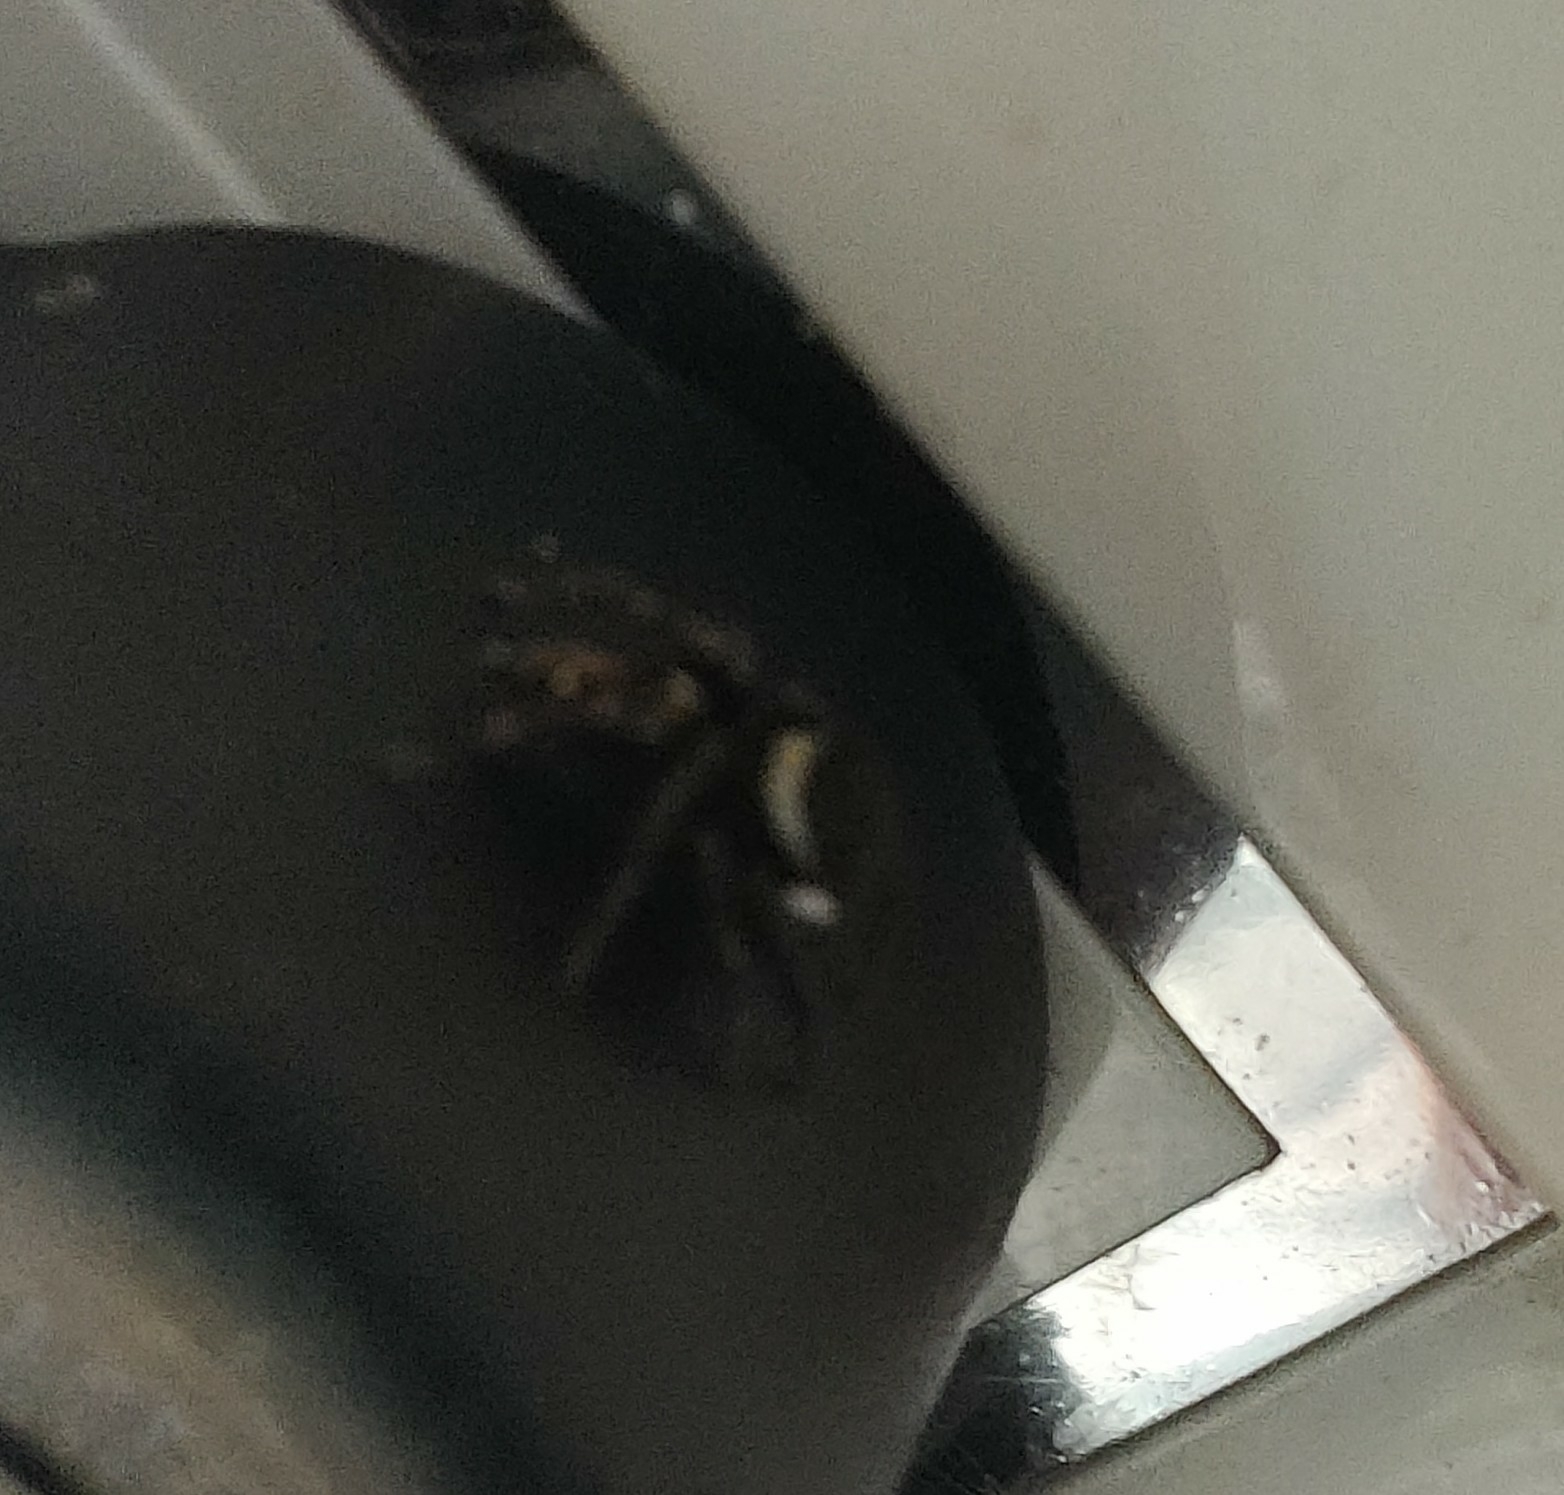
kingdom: Animalia
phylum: Arthropoda
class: Arachnida
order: Araneae
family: Salticidae
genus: Hasarius
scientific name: Hasarius adansoni
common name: Jumping spider
